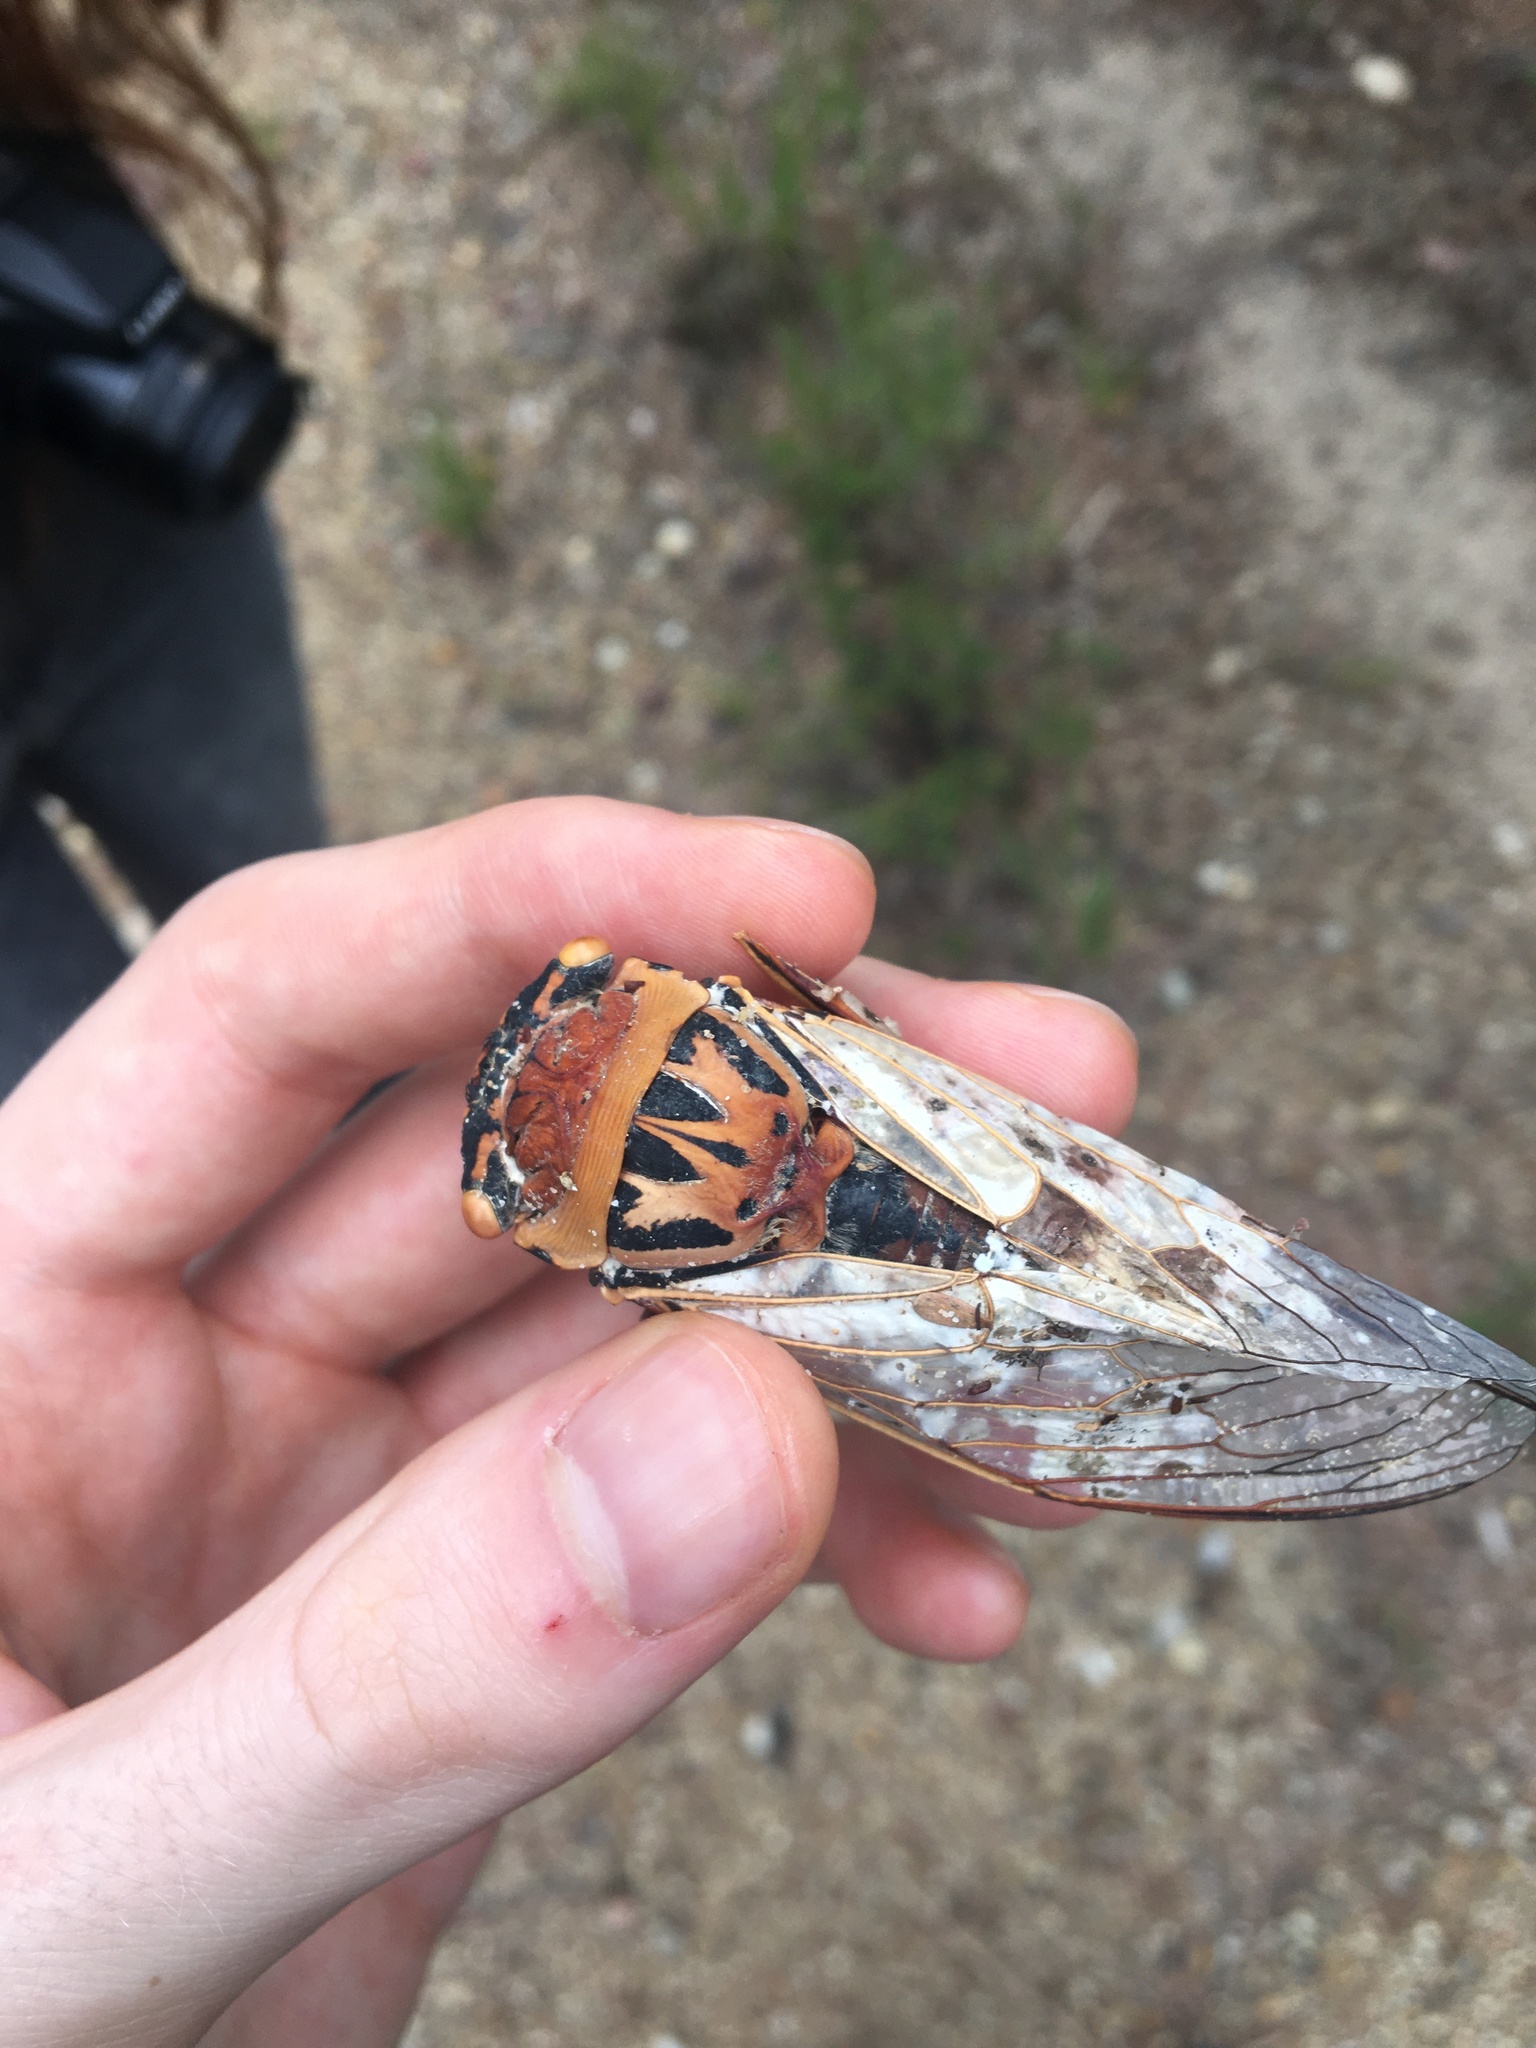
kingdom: Animalia
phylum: Arthropoda
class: Insecta
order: Hemiptera
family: Cicadidae
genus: Thopha
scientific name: Thopha saccata
